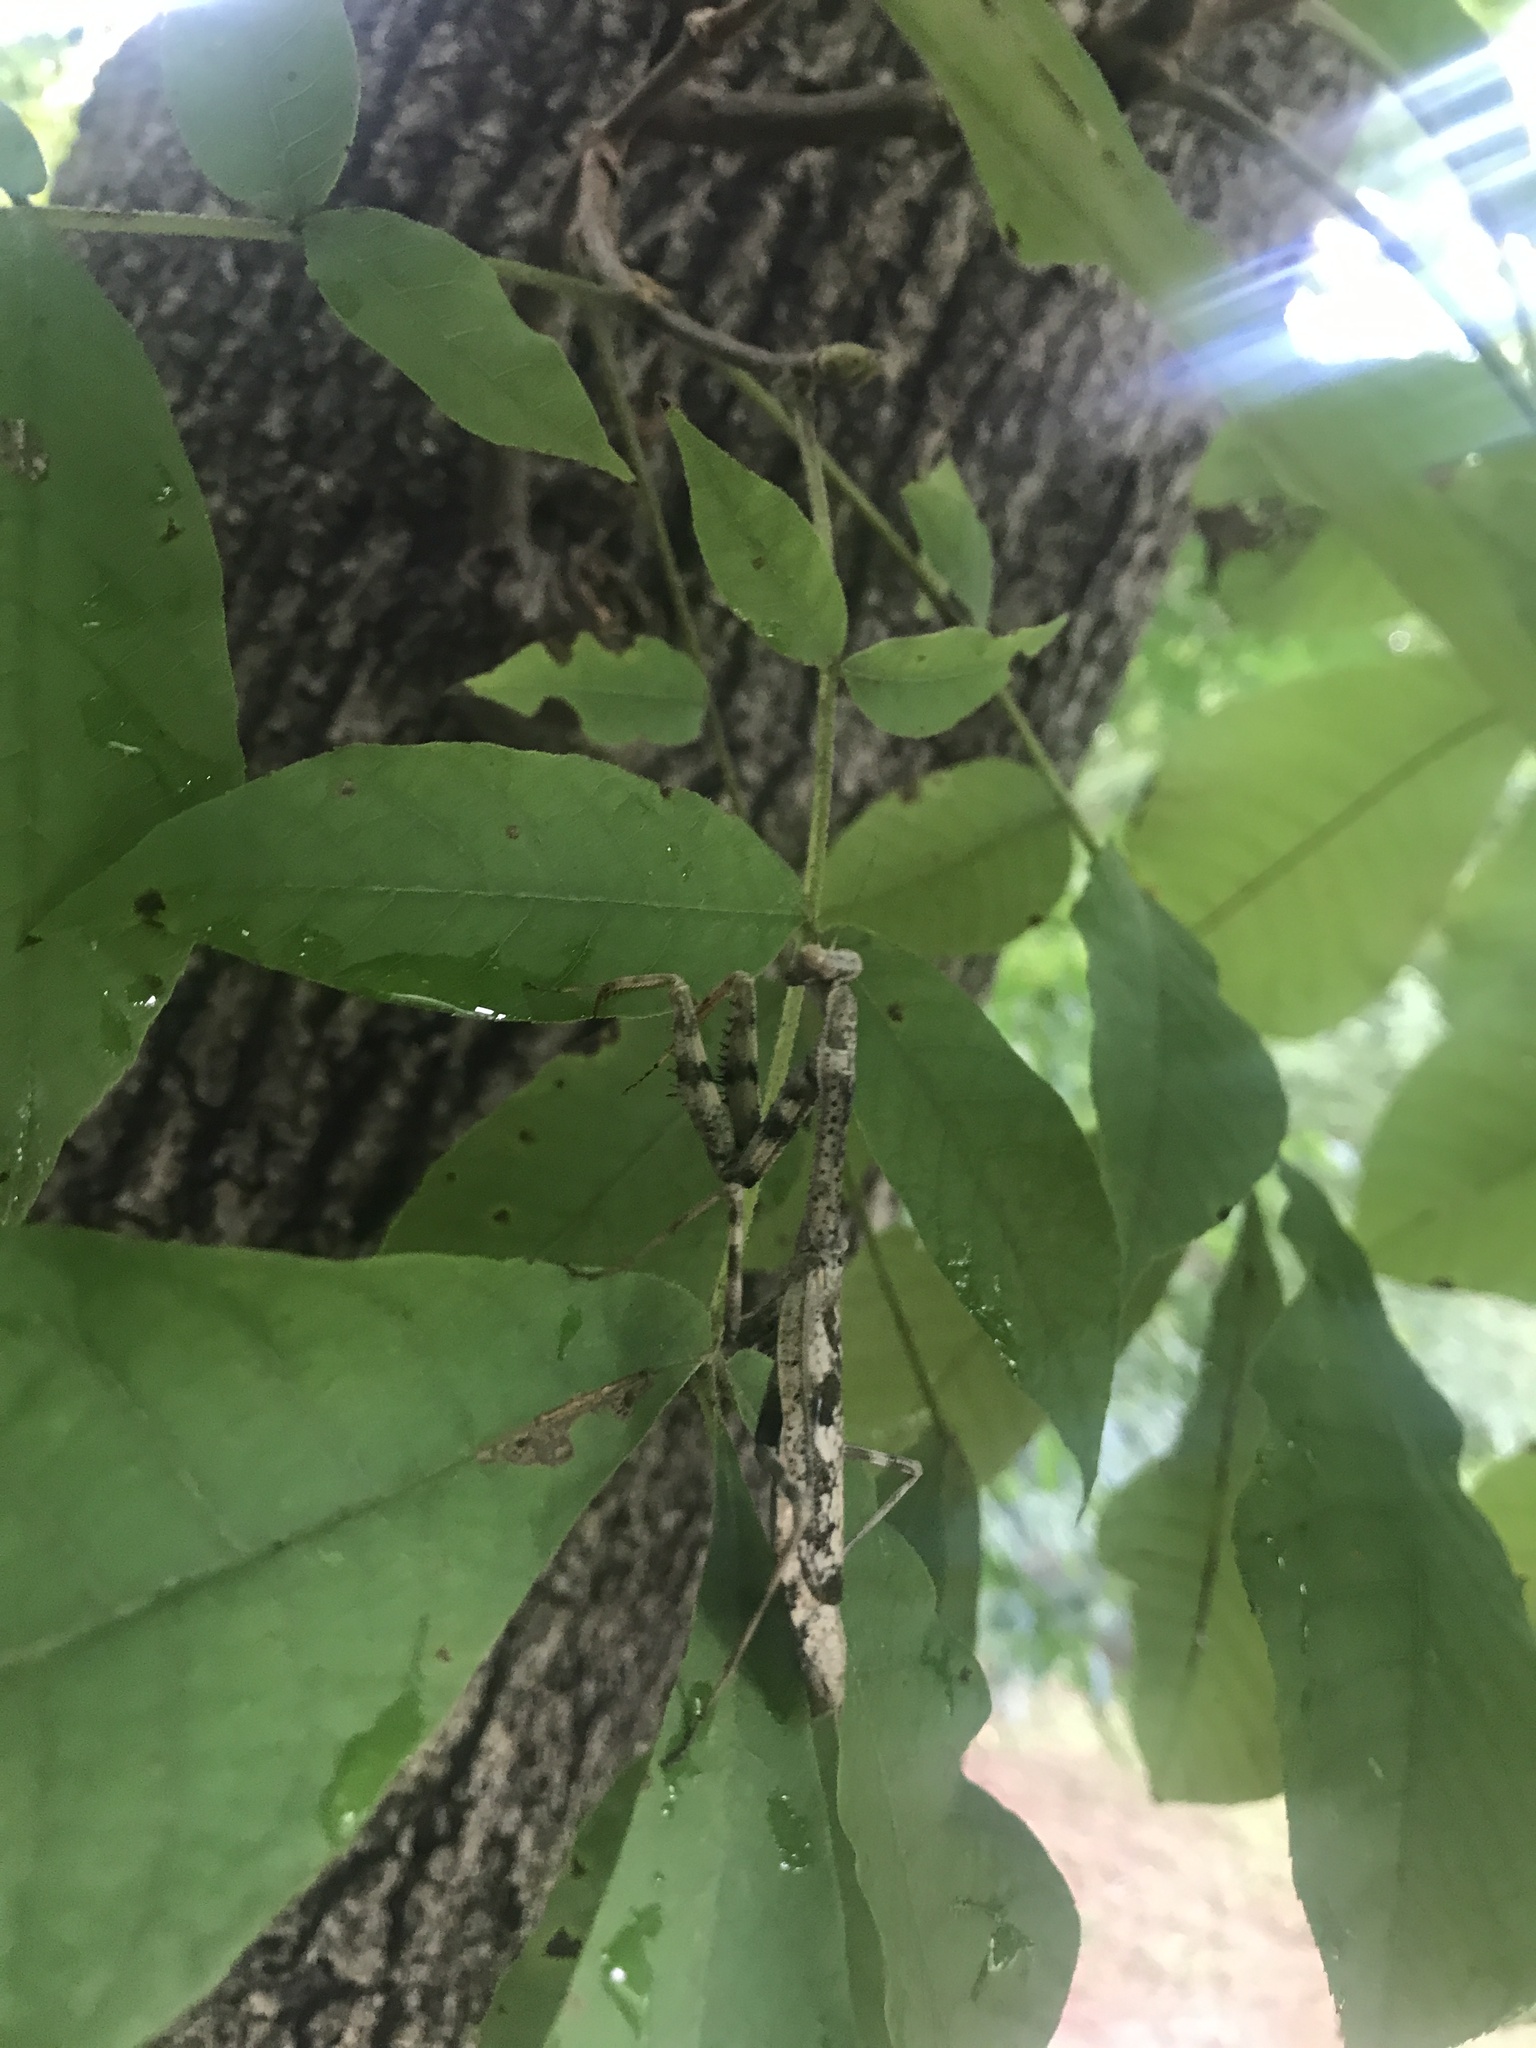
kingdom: Animalia
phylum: Arthropoda
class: Insecta
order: Mantodea
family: Mantidae
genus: Stagmomantis
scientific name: Stagmomantis carolina
